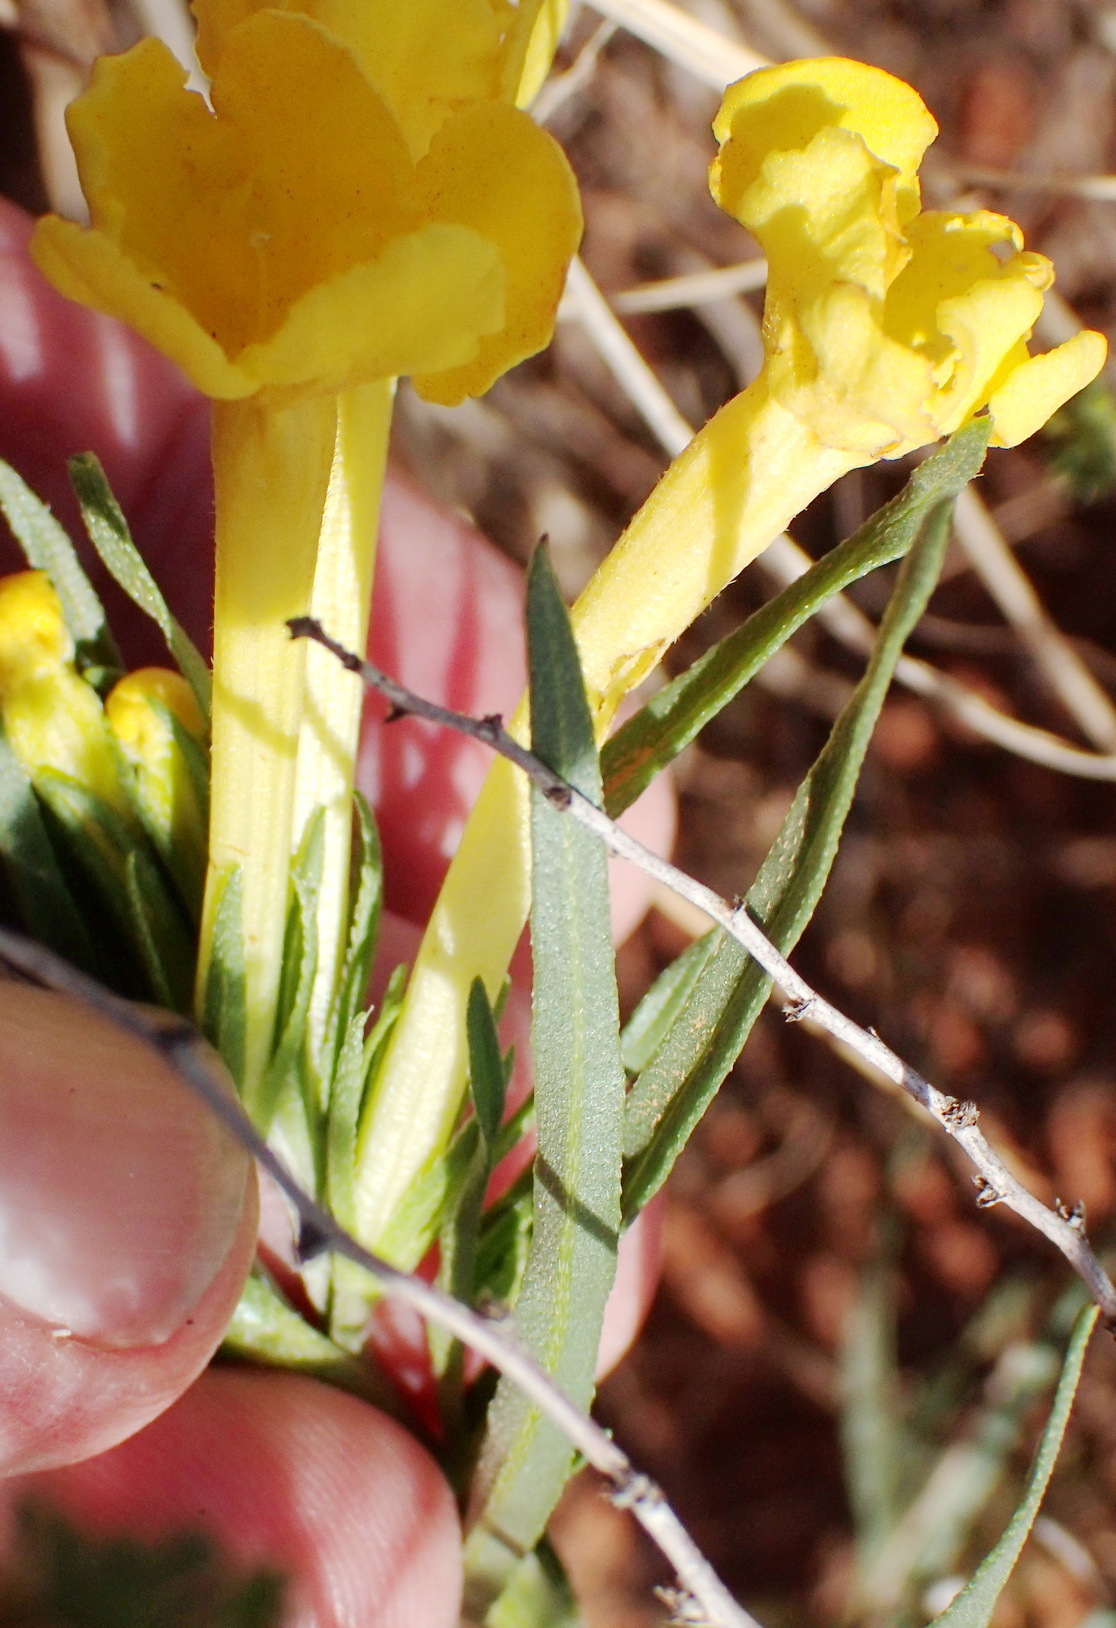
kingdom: Plantae
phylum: Tracheophyta
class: Magnoliopsida
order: Boraginales
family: Boraginaceae
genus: Lithospermum
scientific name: Lithospermum incisum
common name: Fringed gromwell
